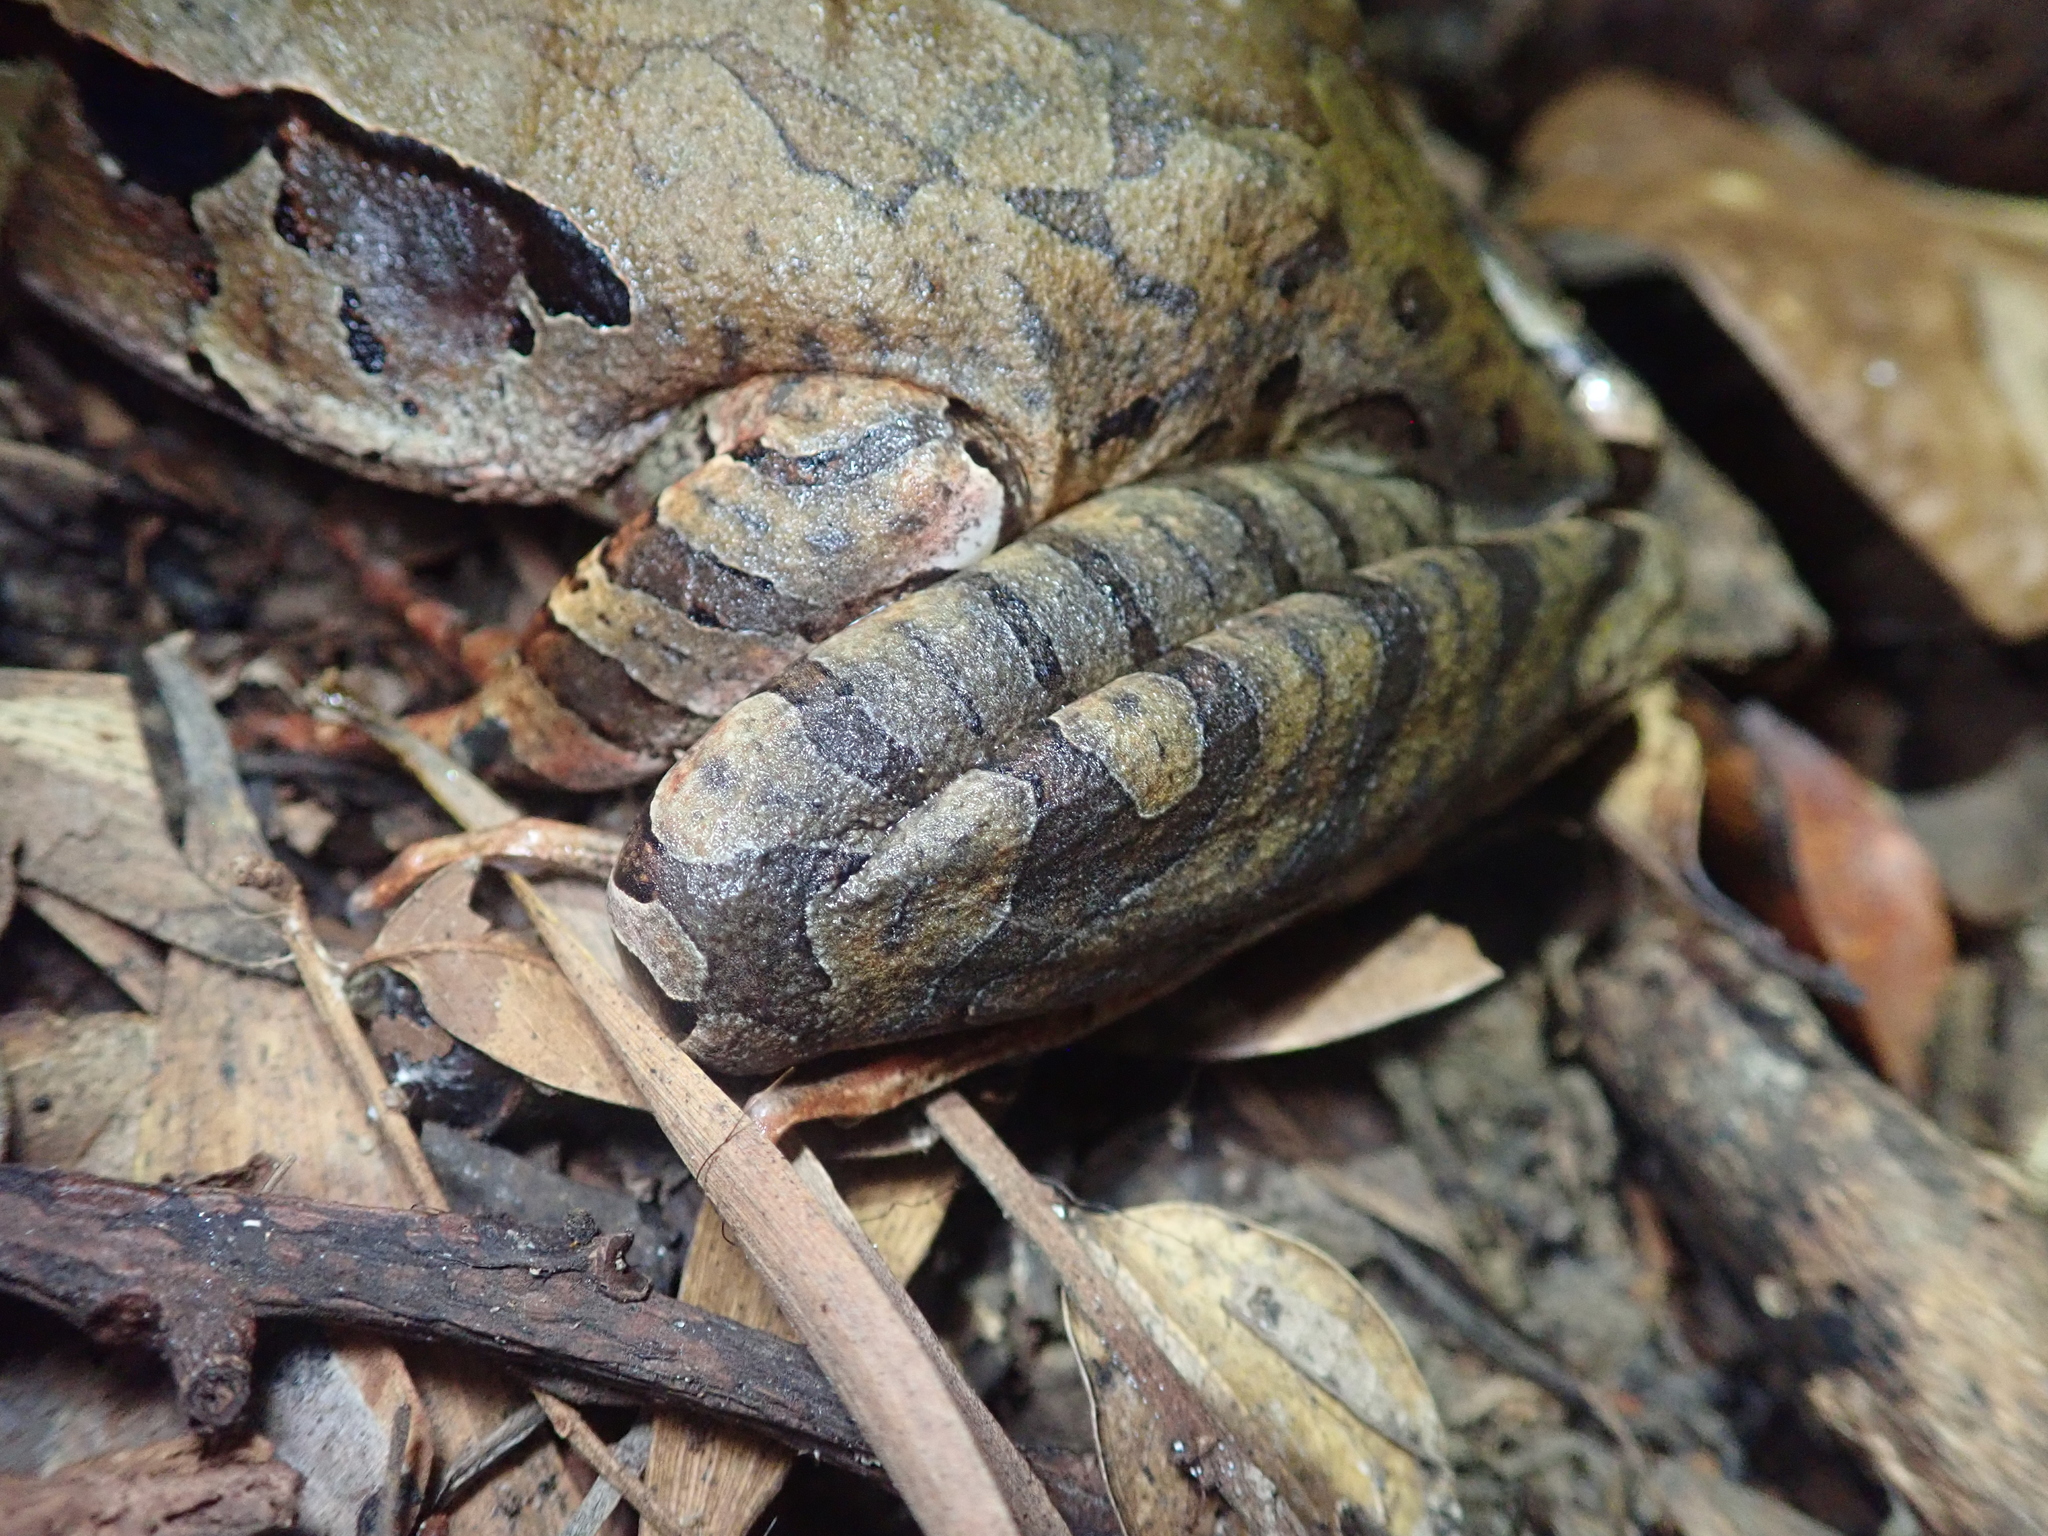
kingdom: Animalia
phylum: Chordata
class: Amphibia
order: Anura
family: Myobatrachidae
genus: Mixophyes
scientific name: Mixophyes schevilli
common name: Northern barred frog
